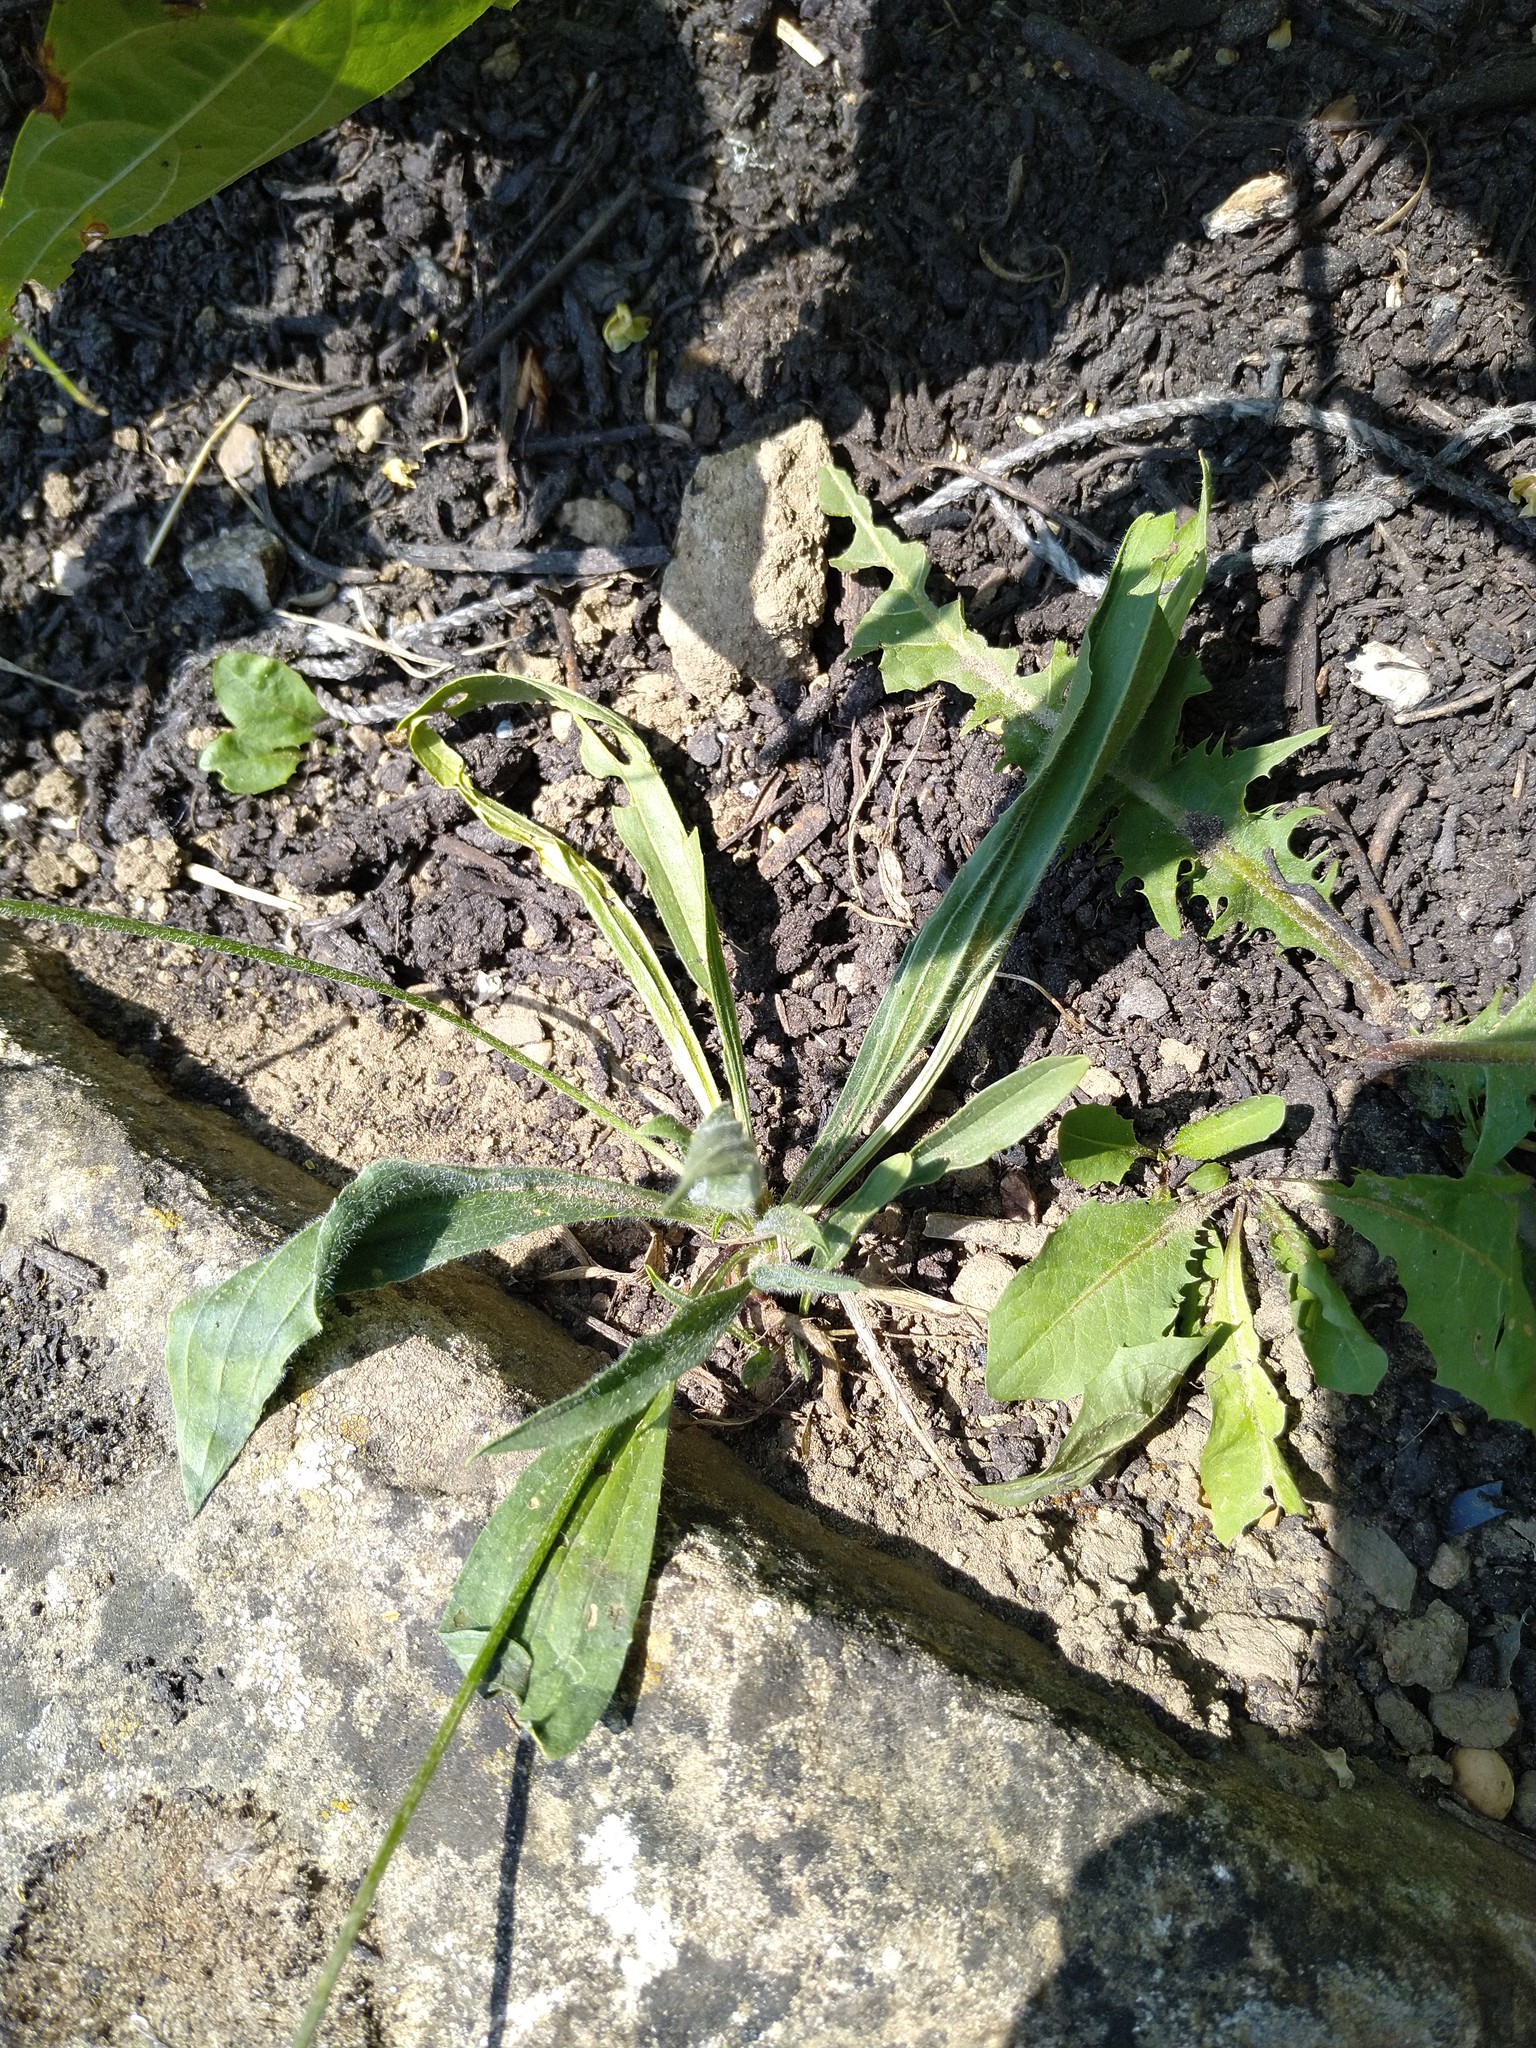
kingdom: Plantae
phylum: Tracheophyta
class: Magnoliopsida
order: Lamiales
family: Plantaginaceae
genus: Plantago
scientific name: Plantago lanceolata
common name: Ribwort plantain
